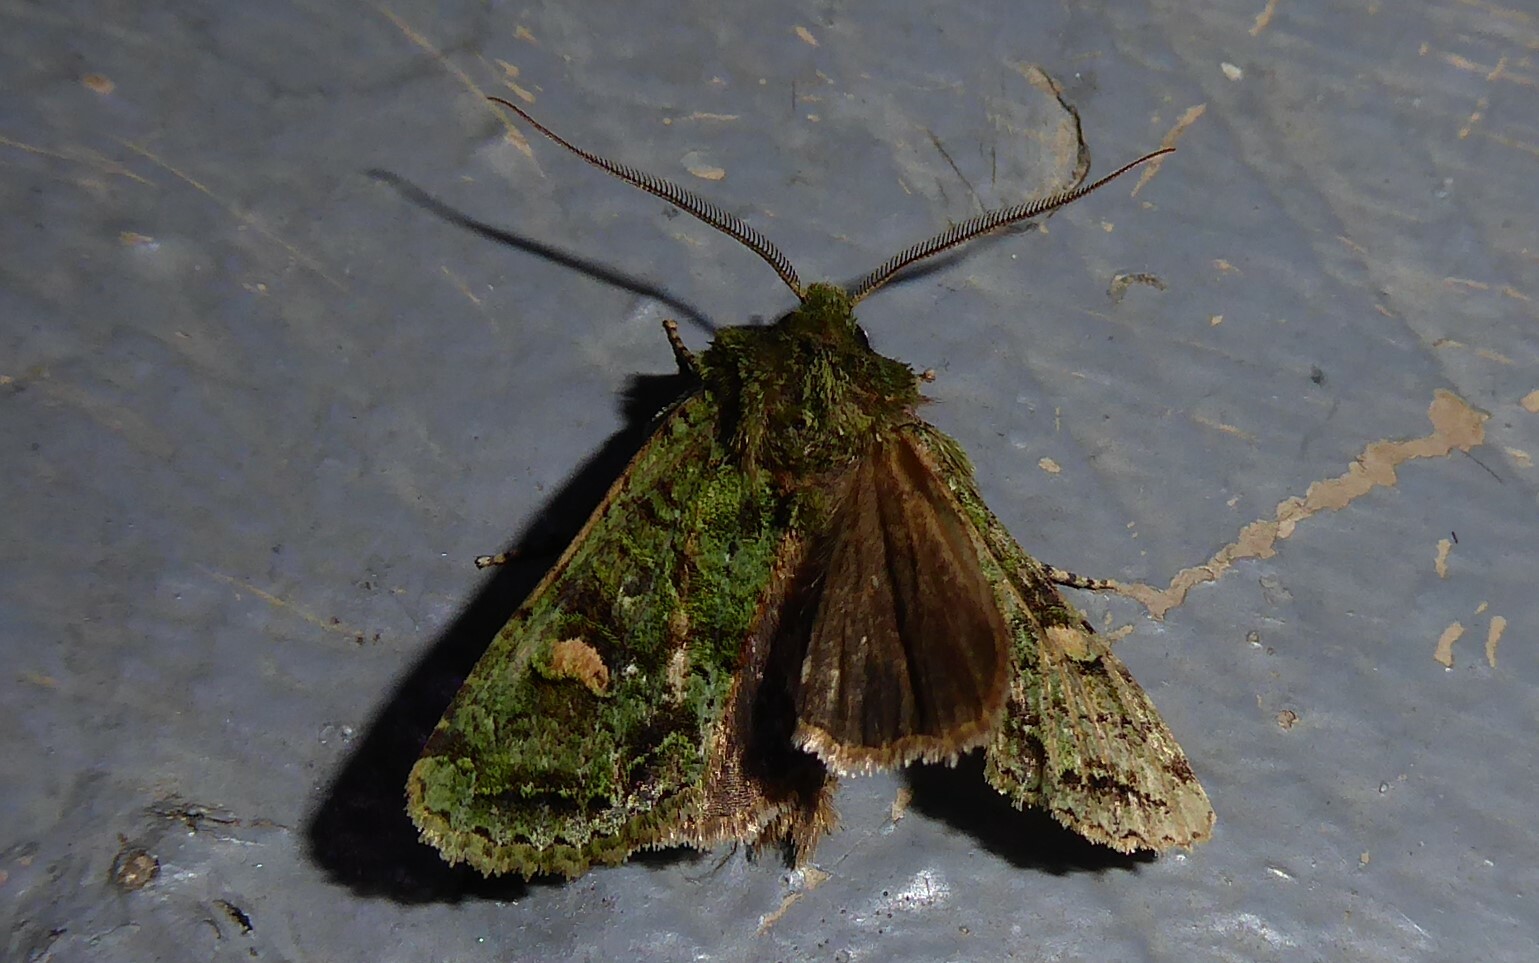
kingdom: Animalia
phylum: Arthropoda
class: Insecta
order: Lepidoptera
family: Noctuidae
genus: Ichneutica
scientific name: Ichneutica
